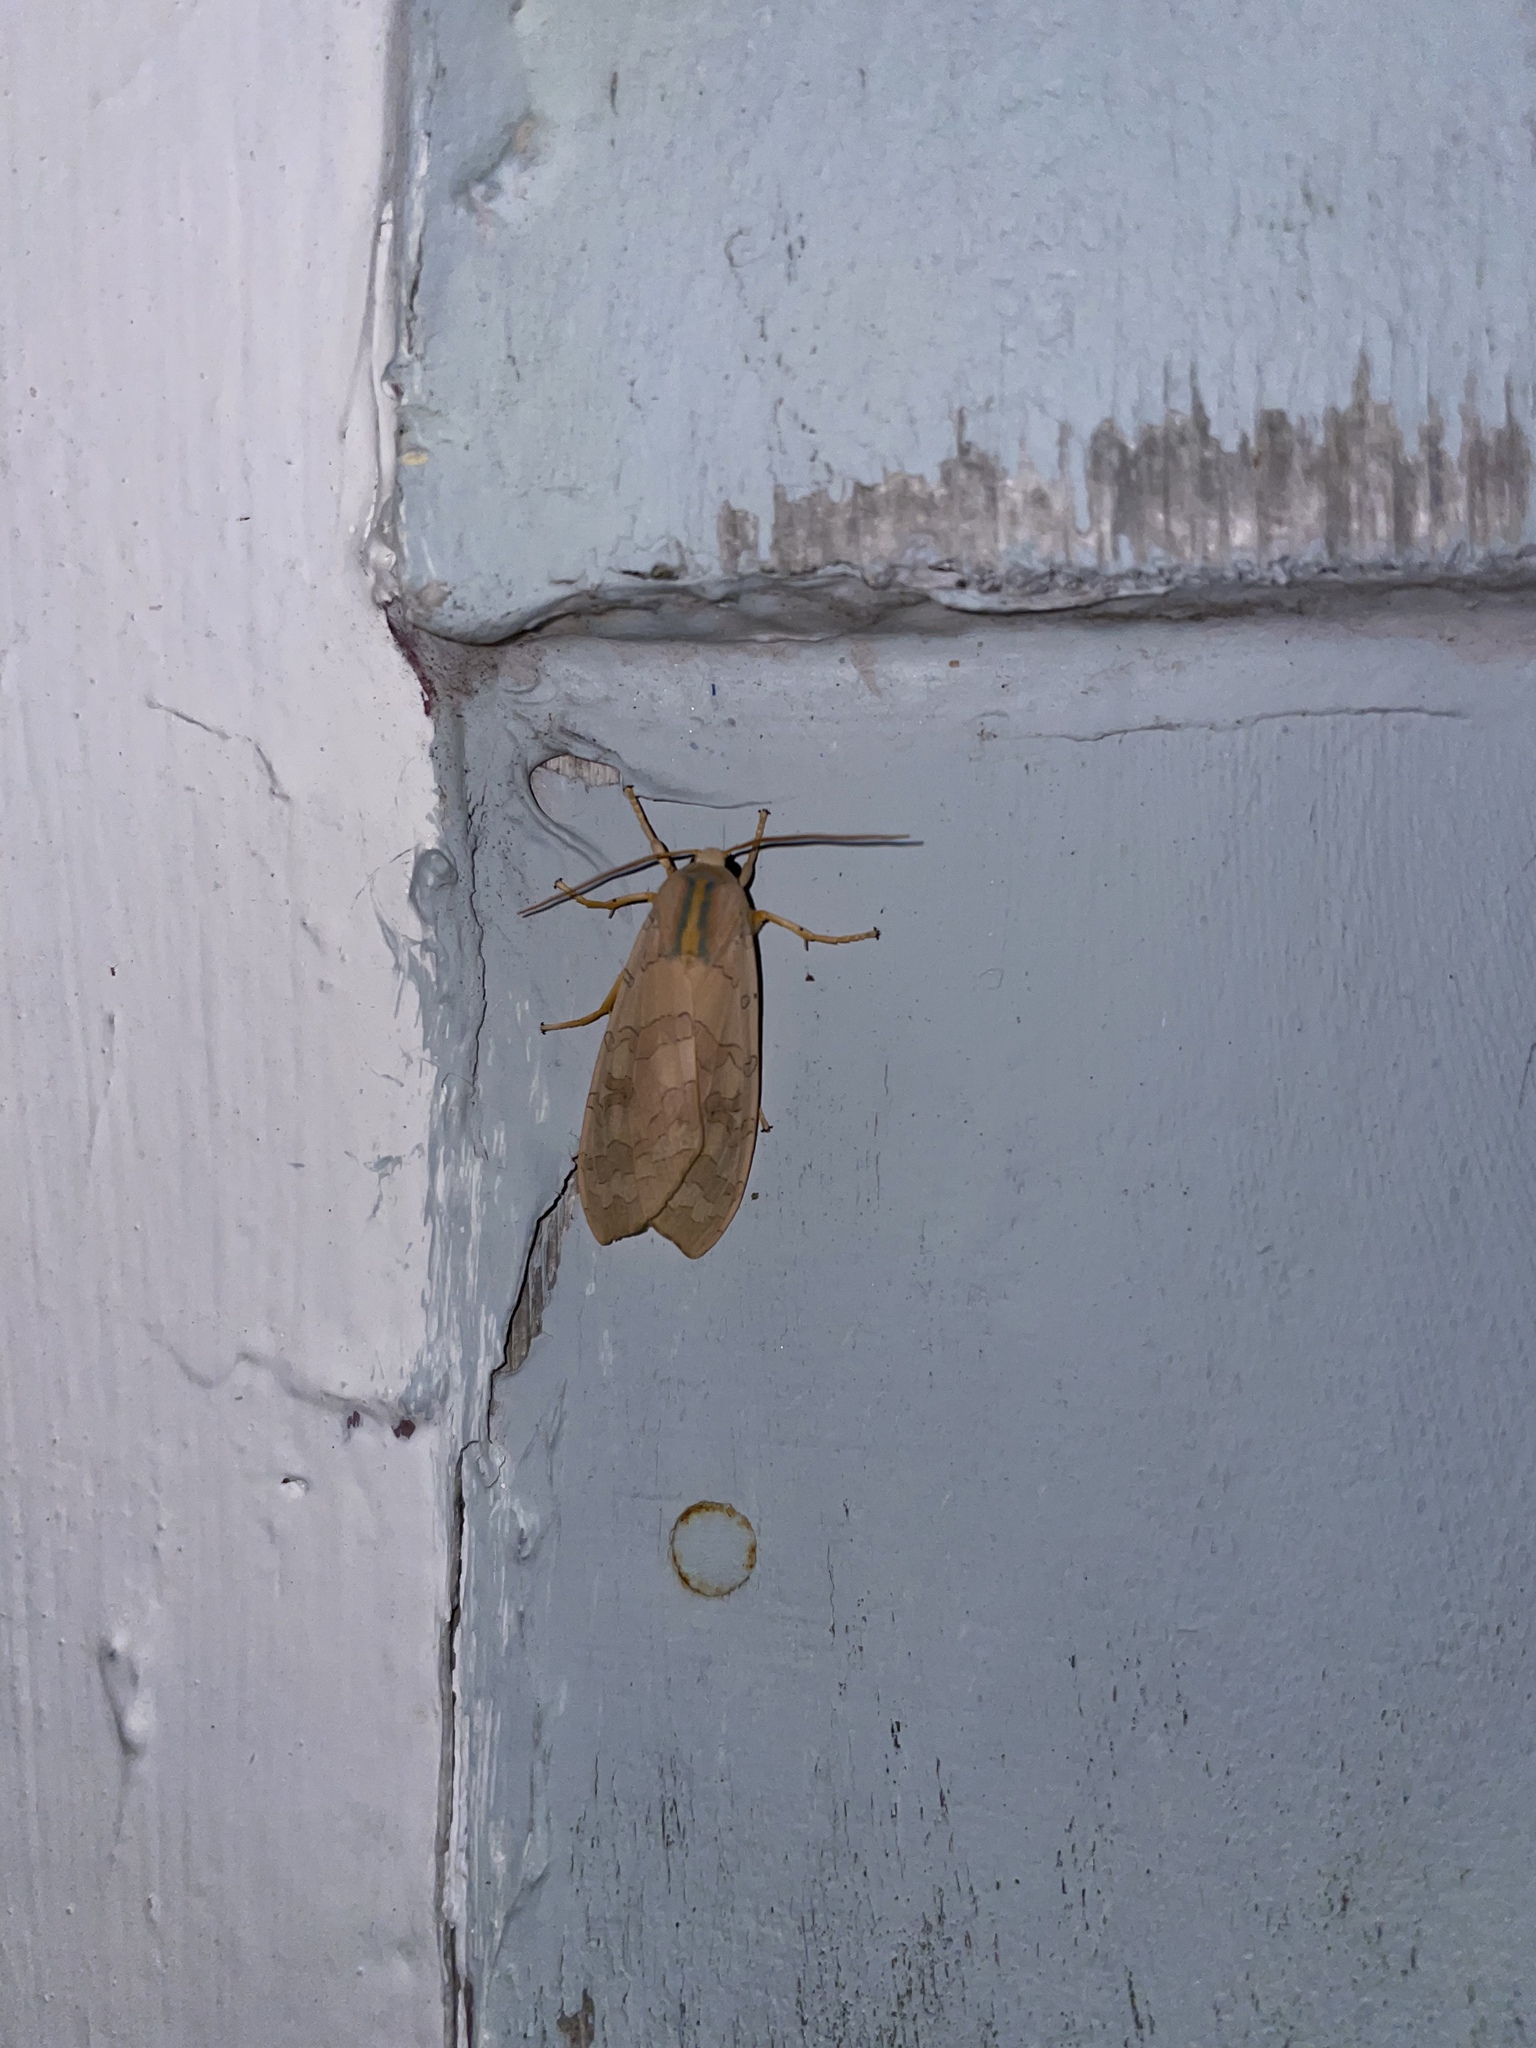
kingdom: Animalia
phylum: Arthropoda
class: Insecta
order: Lepidoptera
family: Erebidae
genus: Halysidota
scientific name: Halysidota tessellaris
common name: Banded tussock moth
